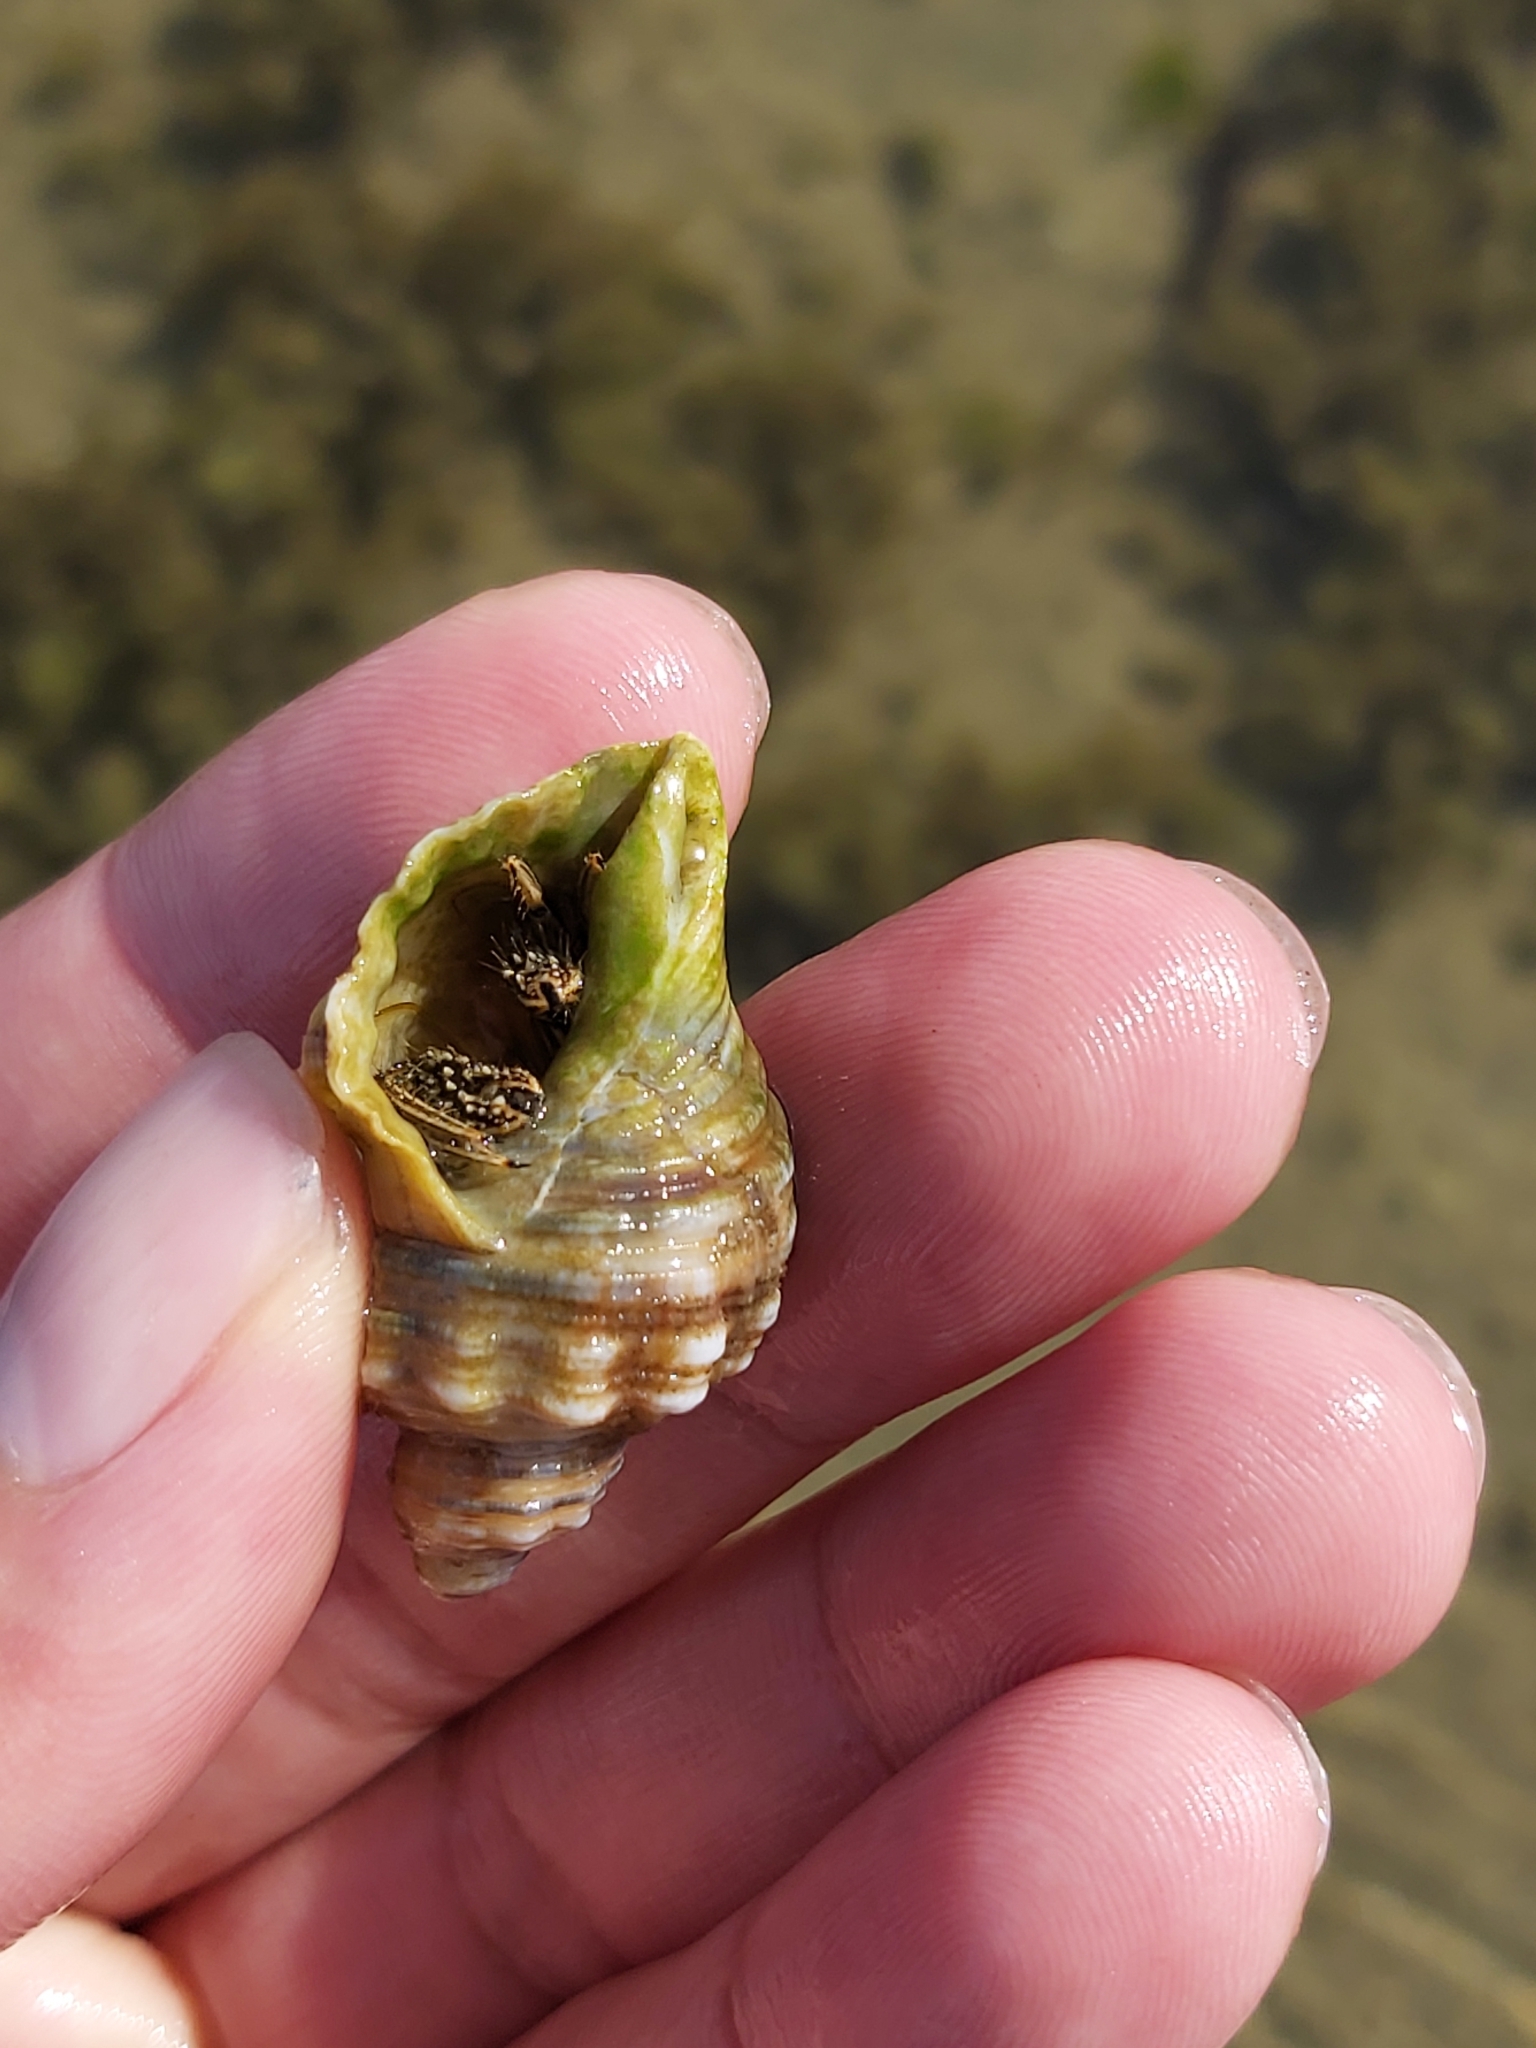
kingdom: Animalia
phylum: Arthropoda
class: Malacostraca
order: Decapoda
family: Diogenidae
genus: Clibanarius
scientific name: Clibanarius taeniatus
